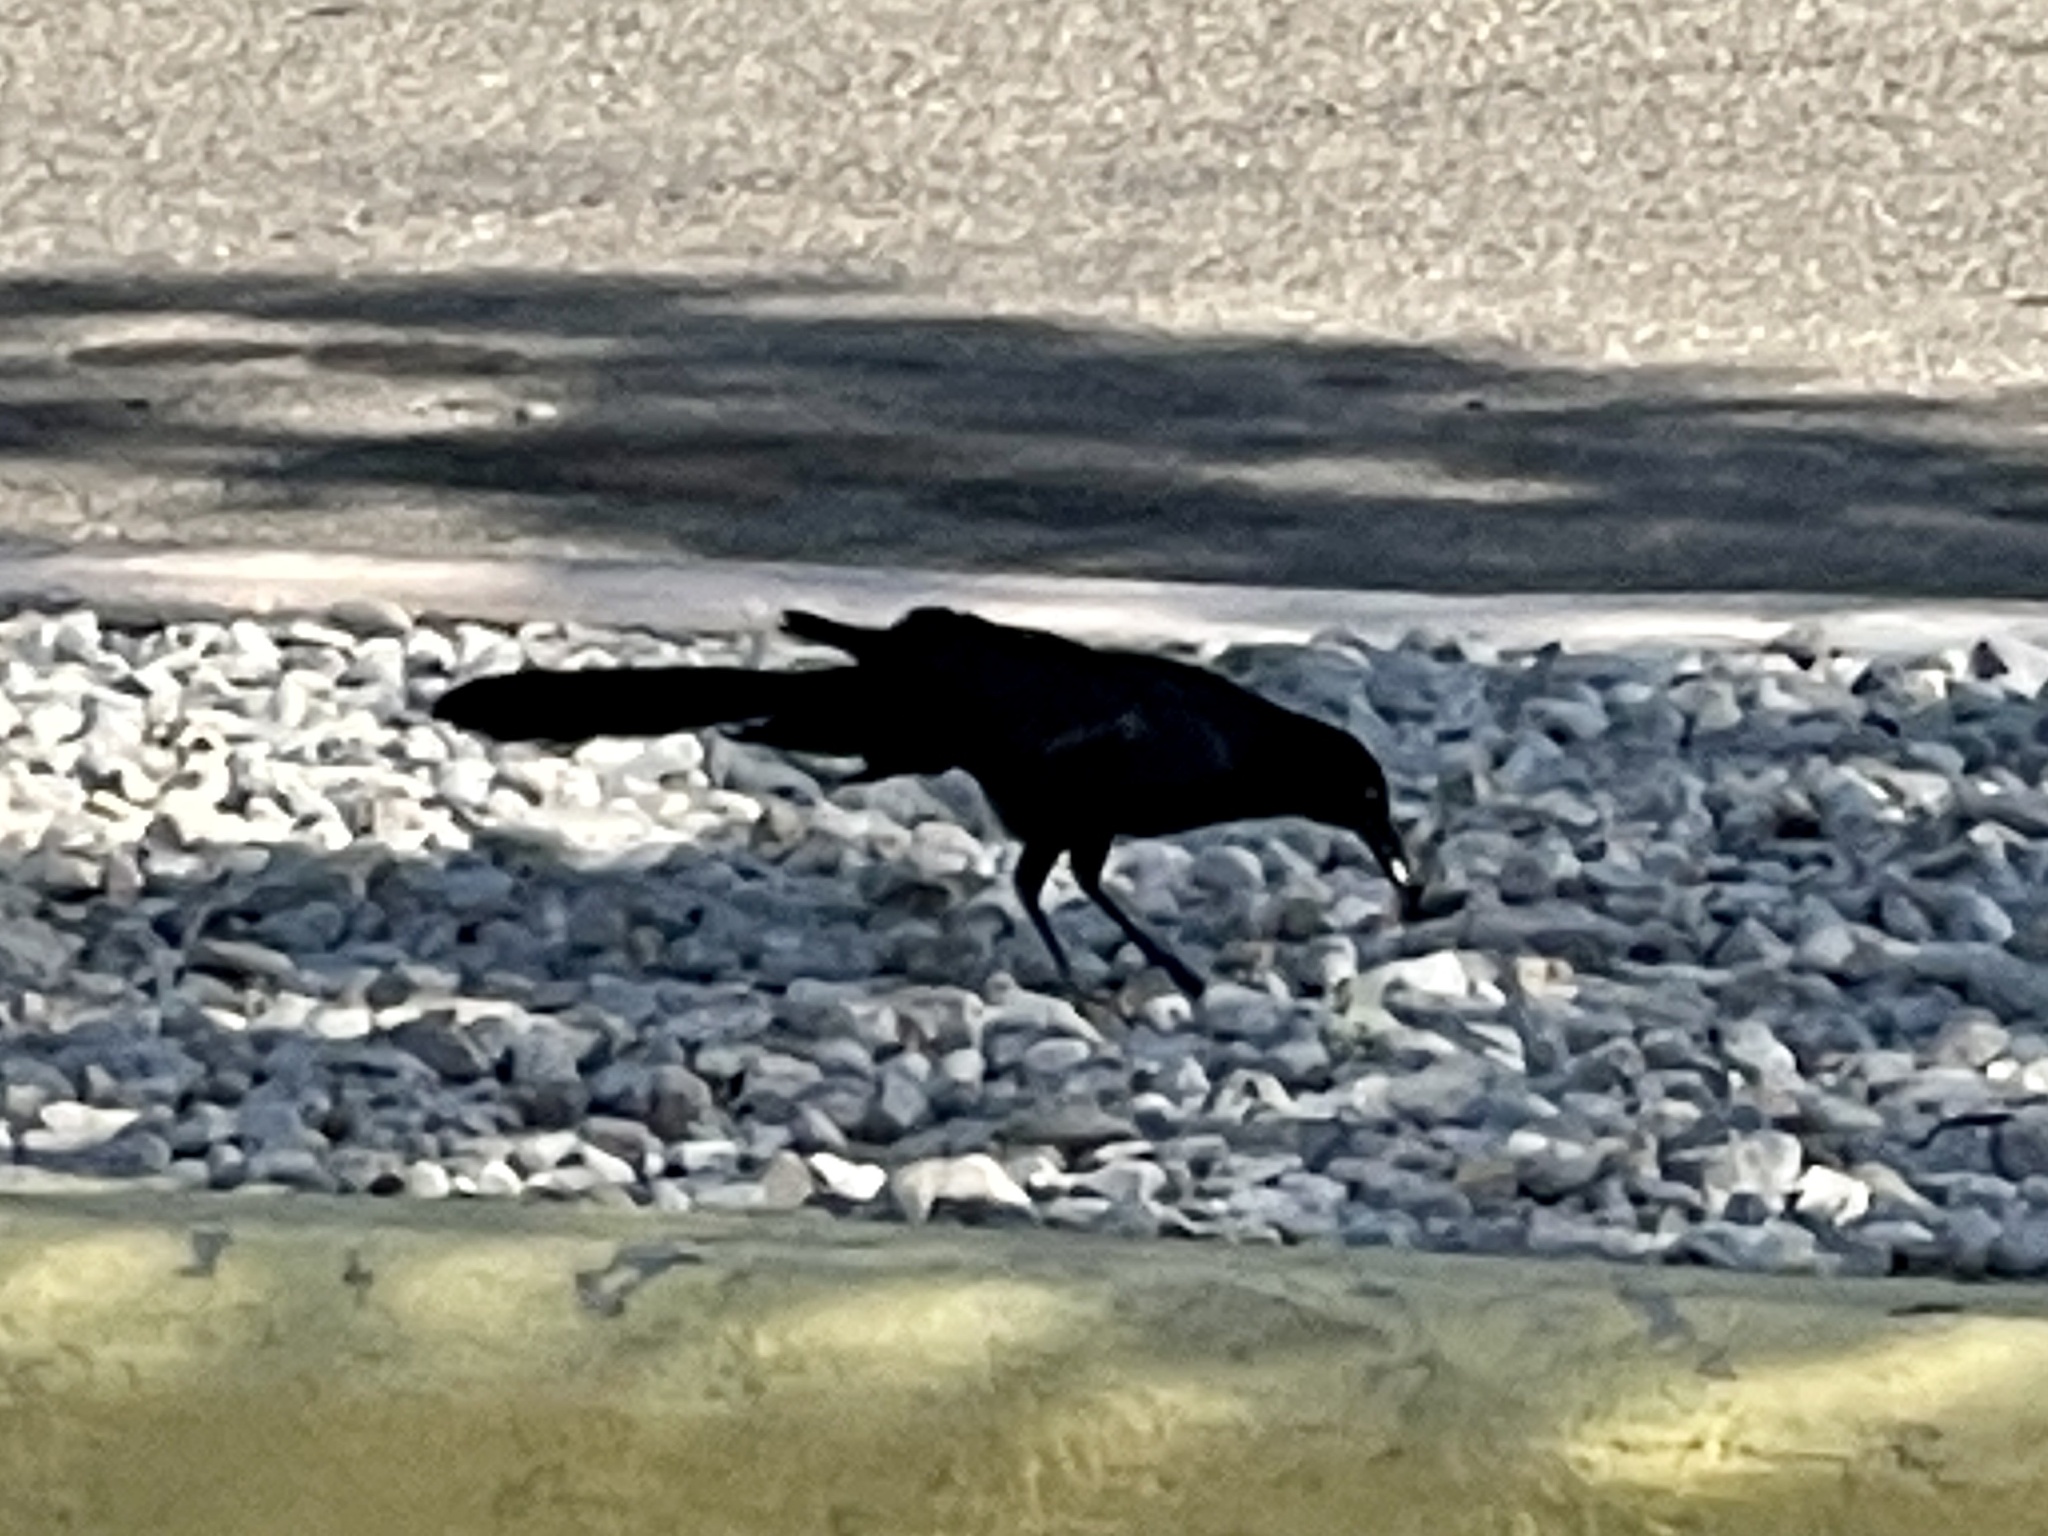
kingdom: Animalia
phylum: Chordata
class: Aves
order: Passeriformes
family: Icteridae
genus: Quiscalus
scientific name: Quiscalus mexicanus
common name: Great-tailed grackle
